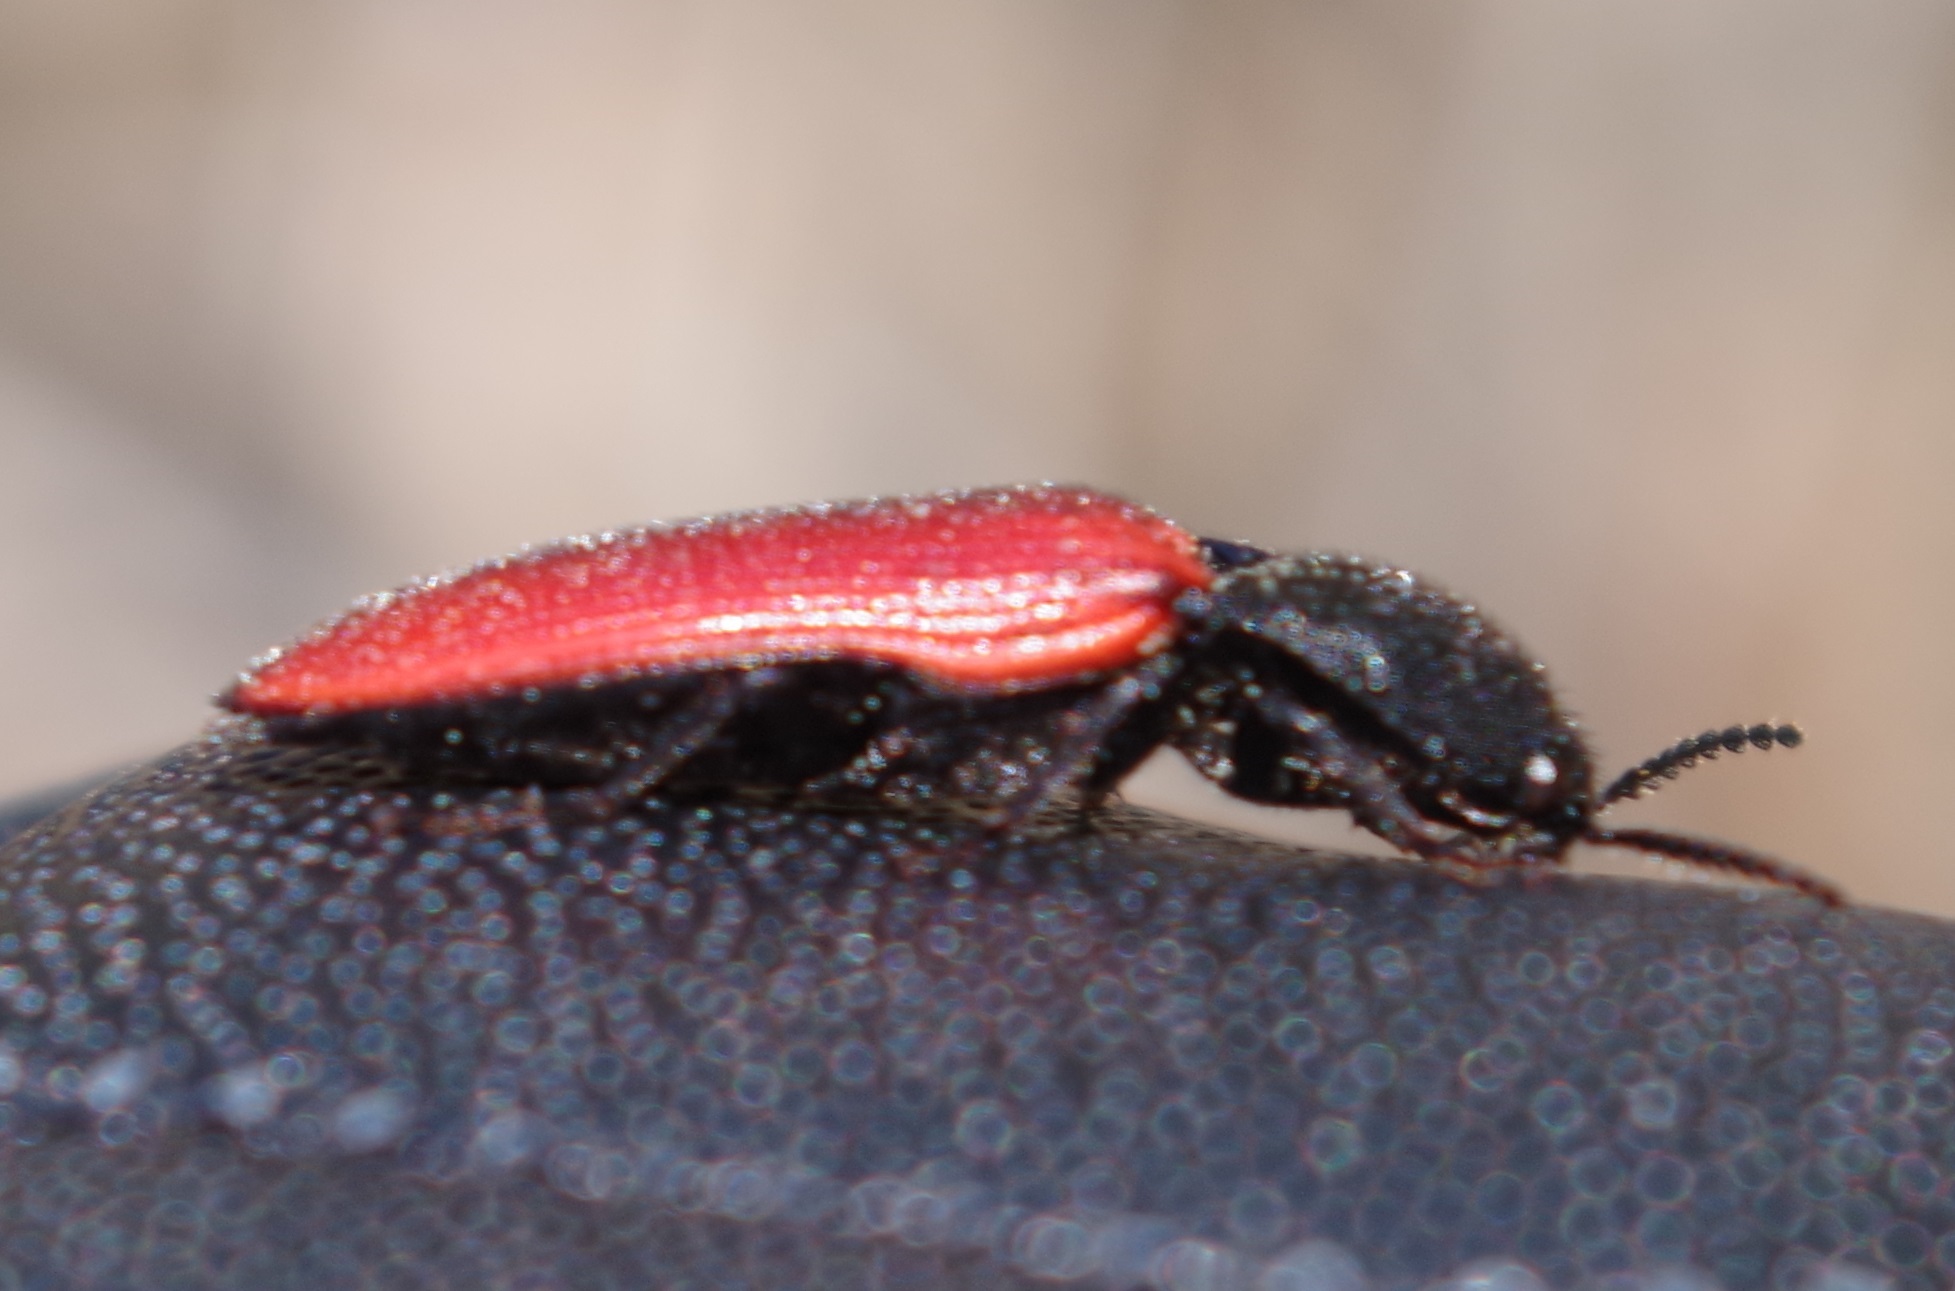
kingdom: Animalia
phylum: Arthropoda
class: Insecta
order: Coleoptera
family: Elateridae
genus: Ampedus
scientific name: Ampedus sanguineus
